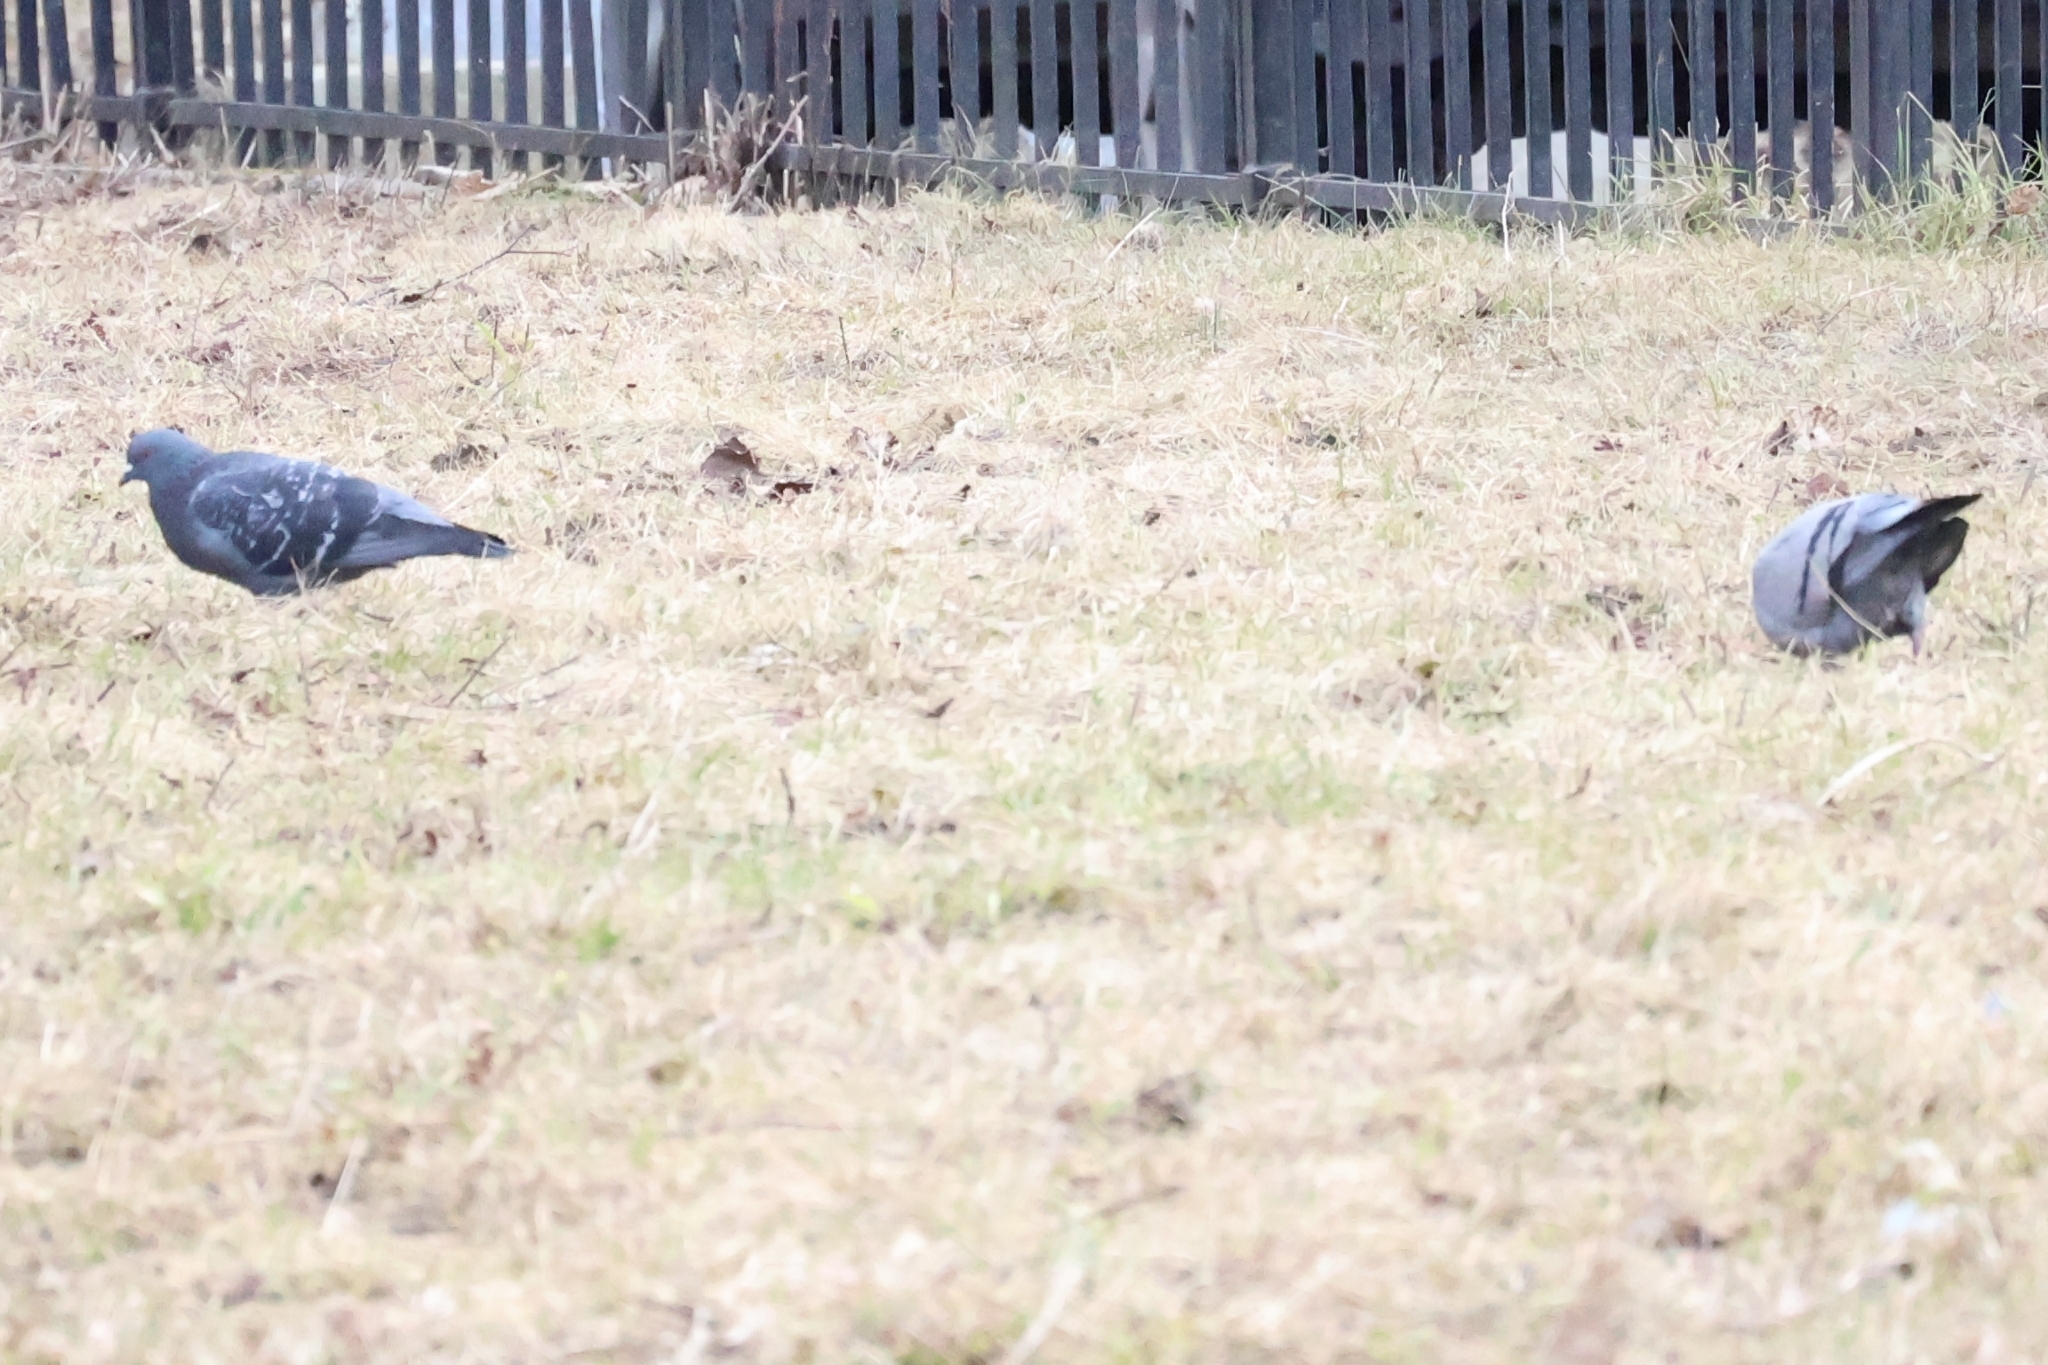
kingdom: Animalia
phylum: Chordata
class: Aves
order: Columbiformes
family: Columbidae
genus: Columba
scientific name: Columba livia
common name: Rock pigeon
